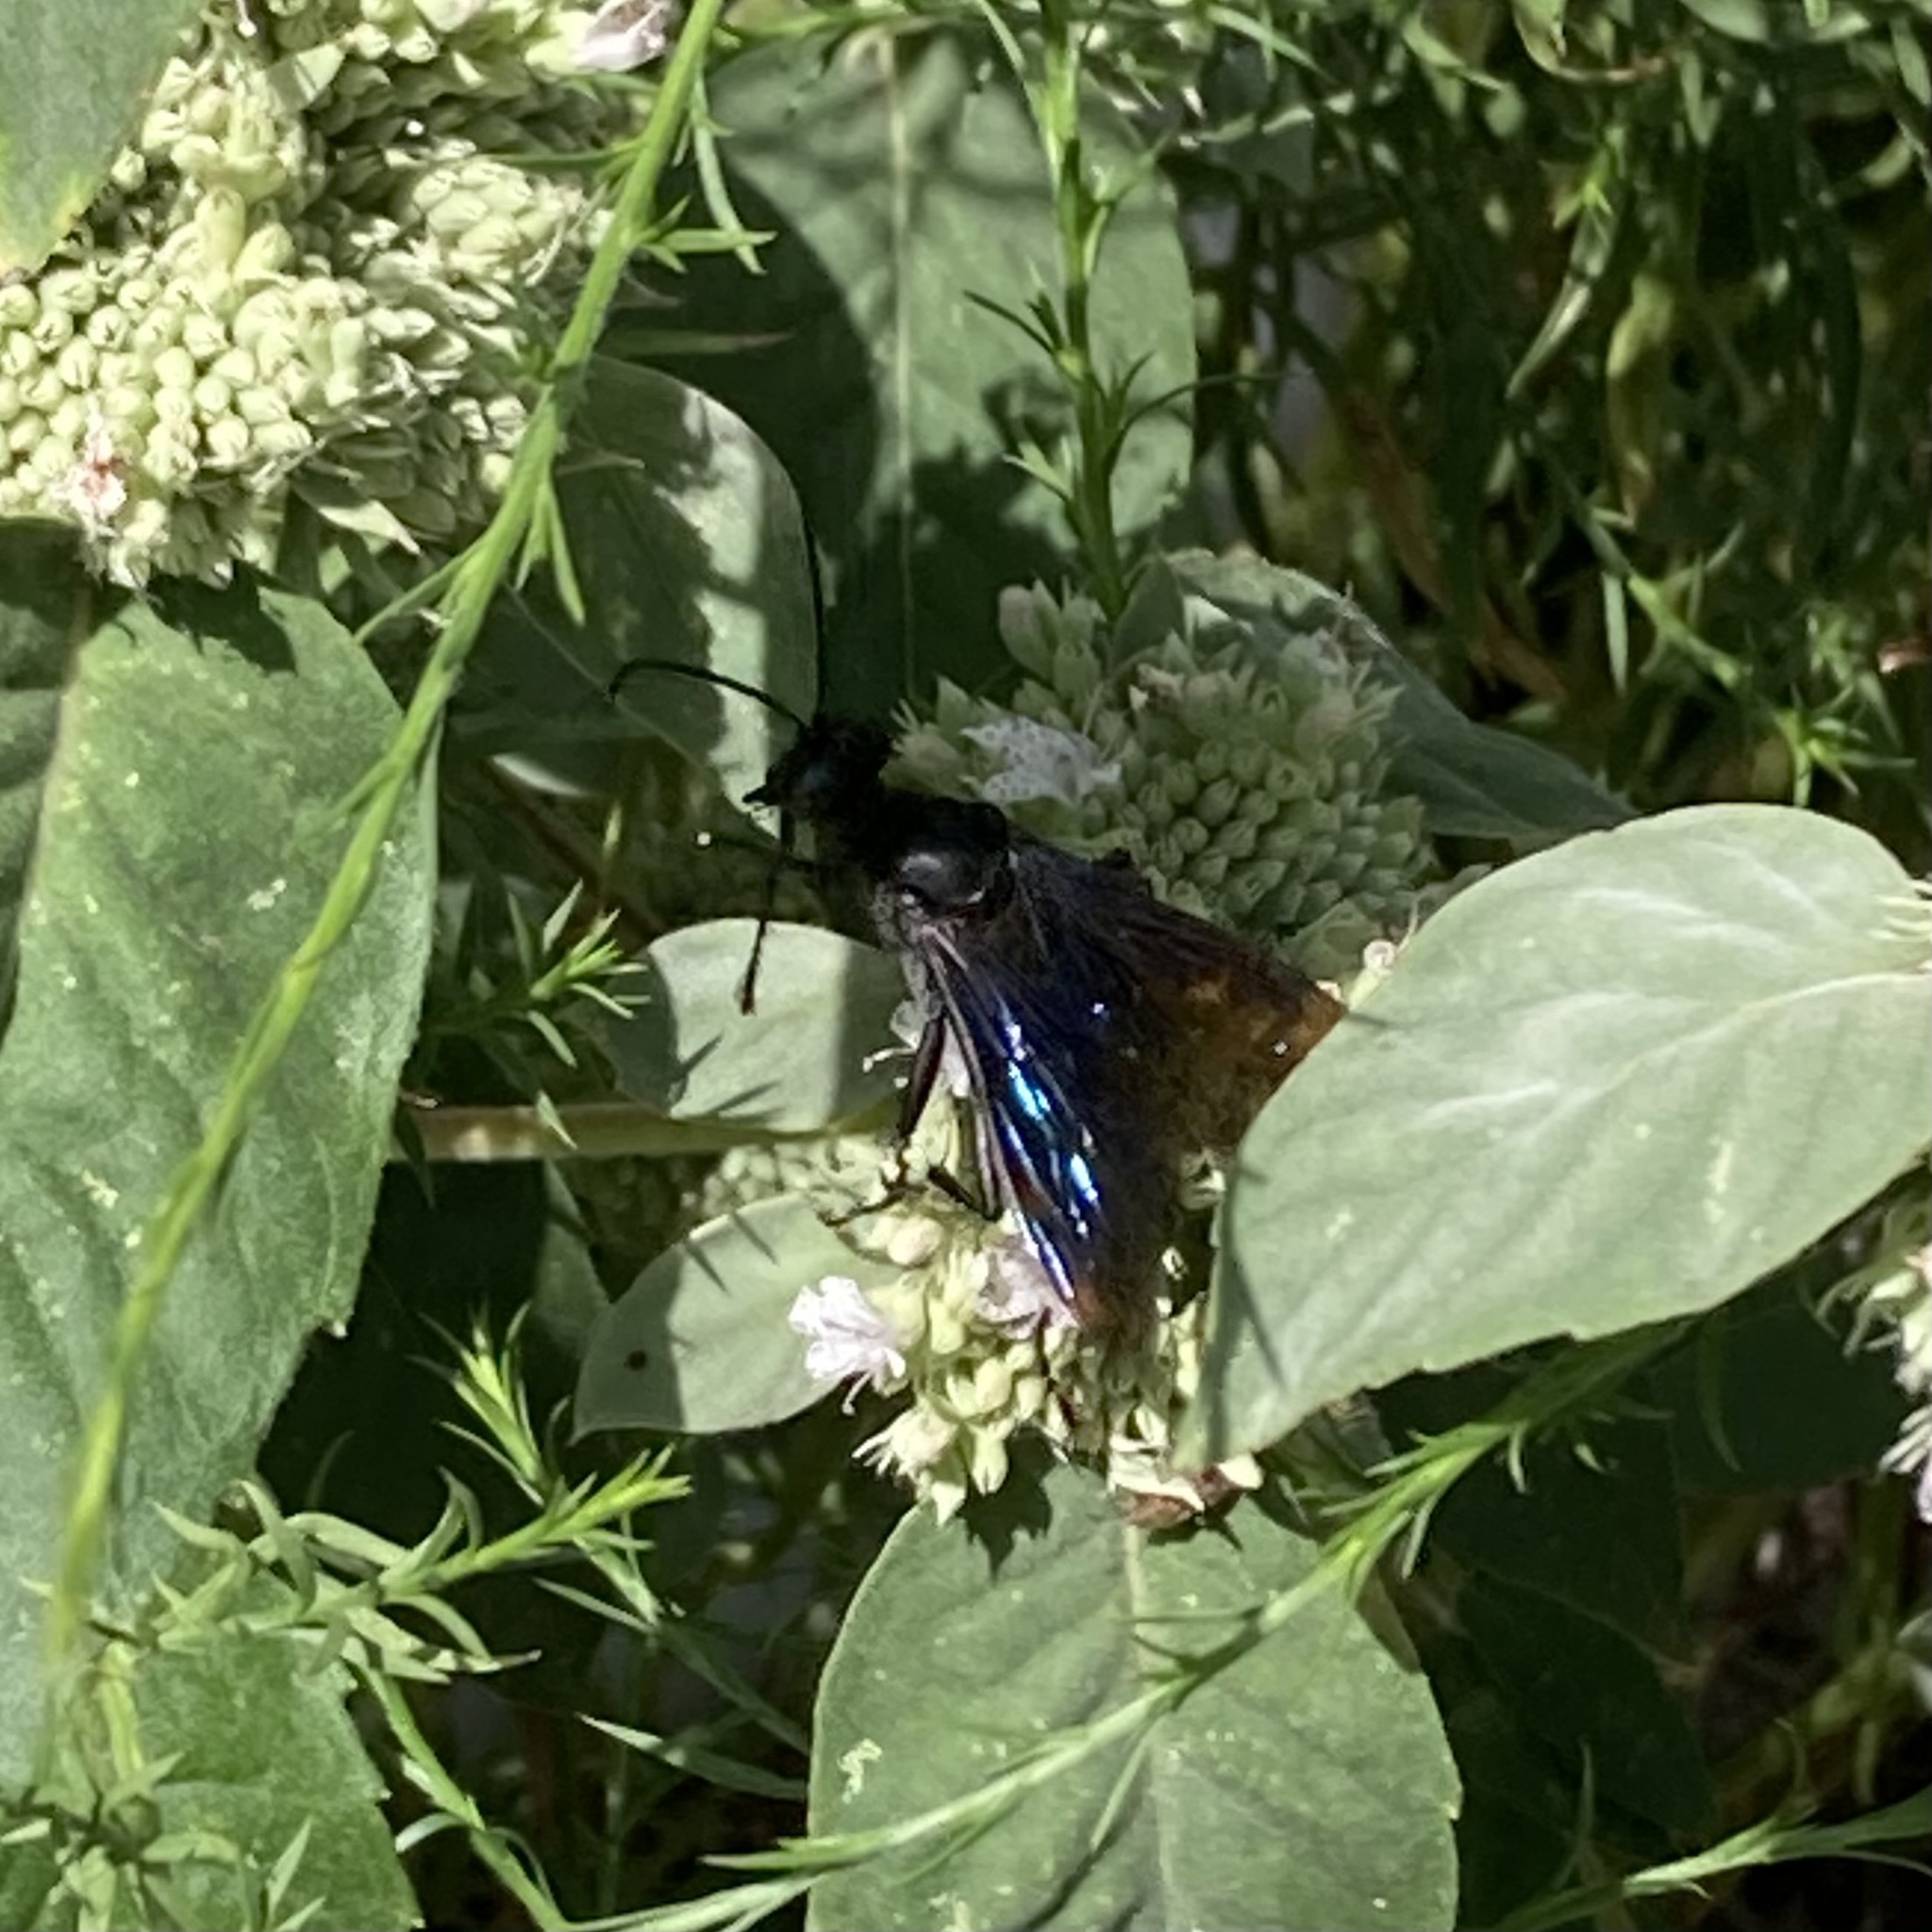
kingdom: Animalia
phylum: Arthropoda
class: Insecta
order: Hymenoptera
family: Sphecidae
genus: Sphex
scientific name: Sphex pensylvanicus
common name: Great black digger wasp
